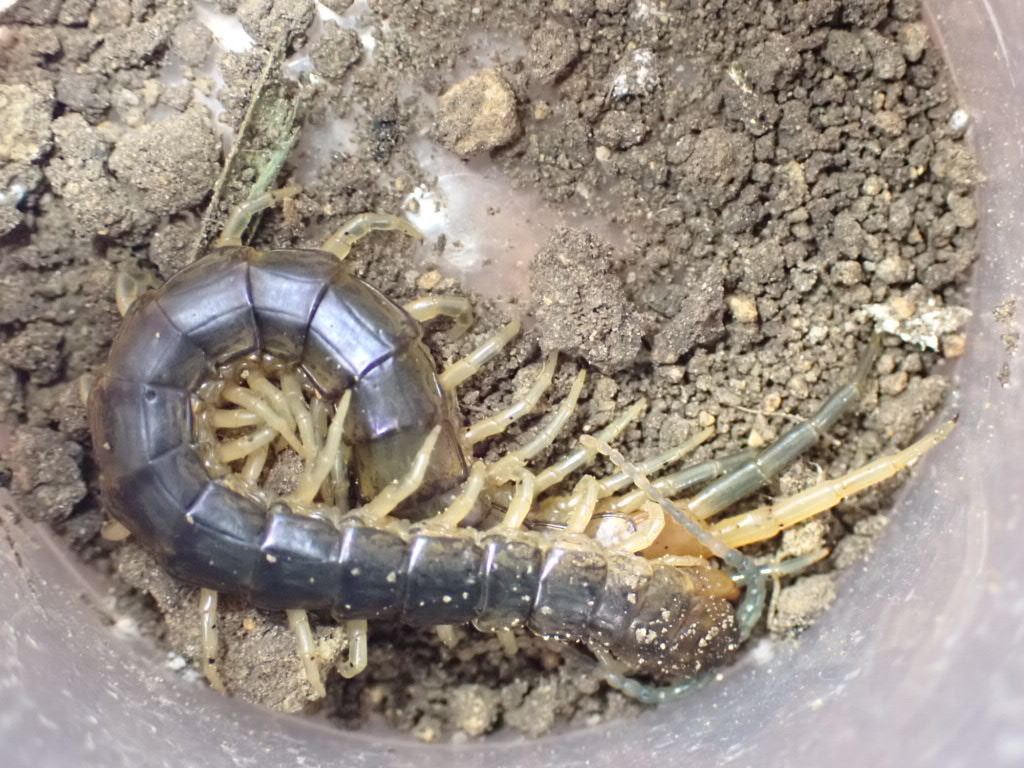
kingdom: Animalia
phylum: Arthropoda
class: Chilopoda
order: Scolopendromorpha
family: Scolopendridae
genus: Cormocephalus
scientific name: Cormocephalus rubriceps
